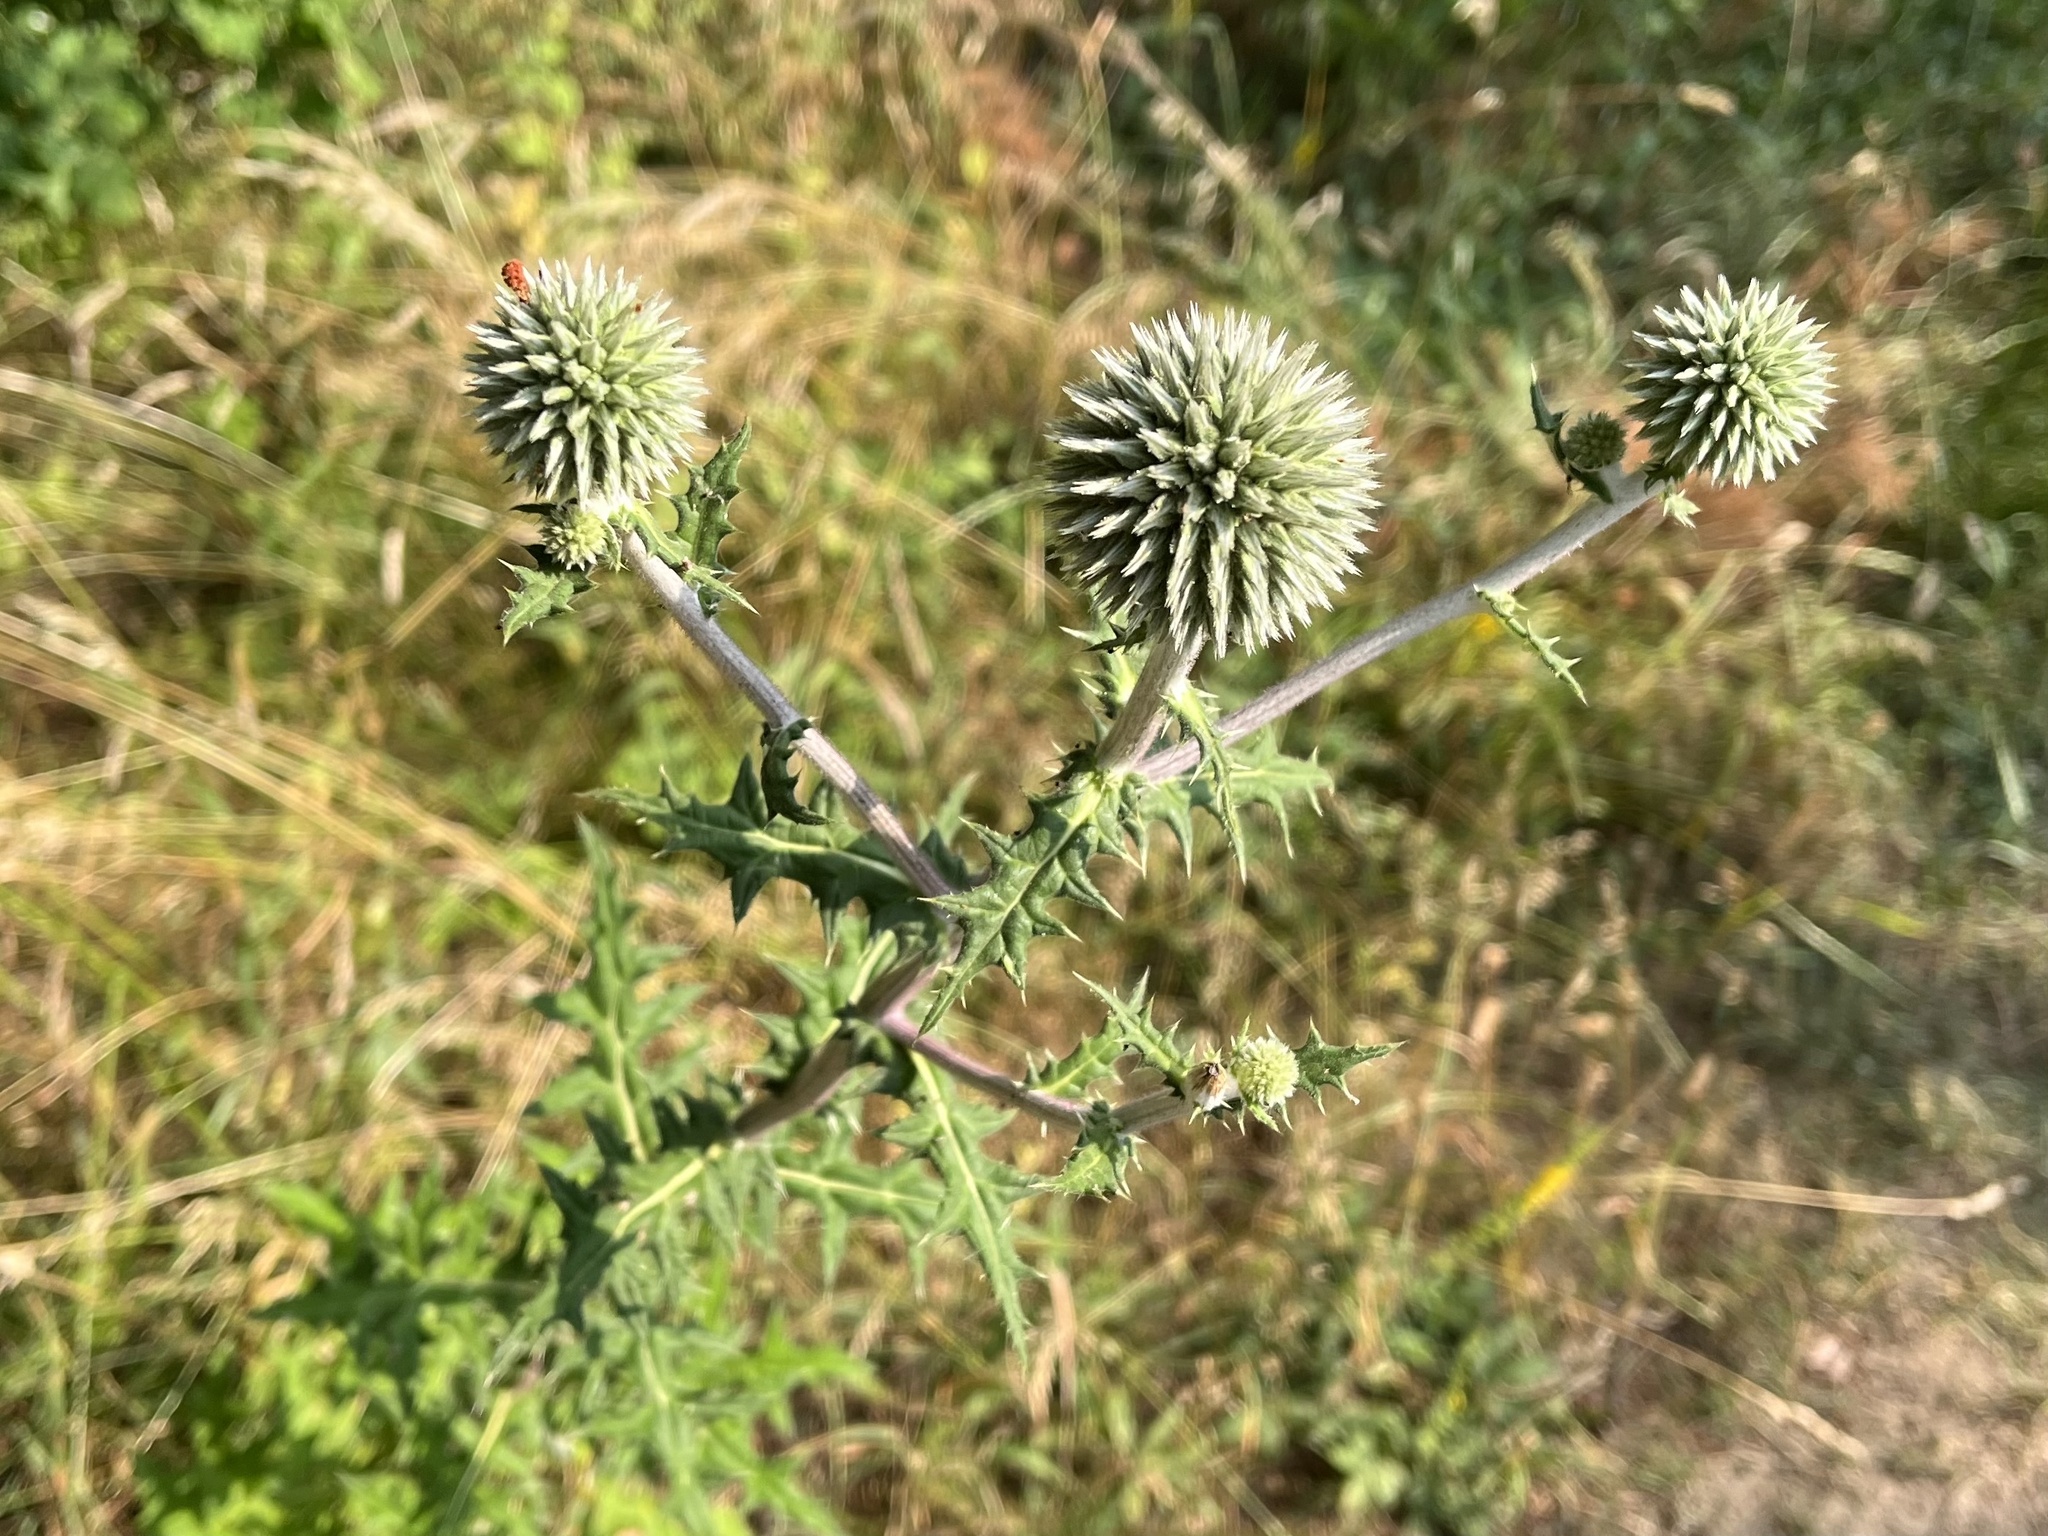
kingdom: Plantae
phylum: Tracheophyta
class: Magnoliopsida
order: Asterales
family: Asteraceae
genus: Echinops
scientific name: Echinops sphaerocephalus
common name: Glandular globe-thistle
